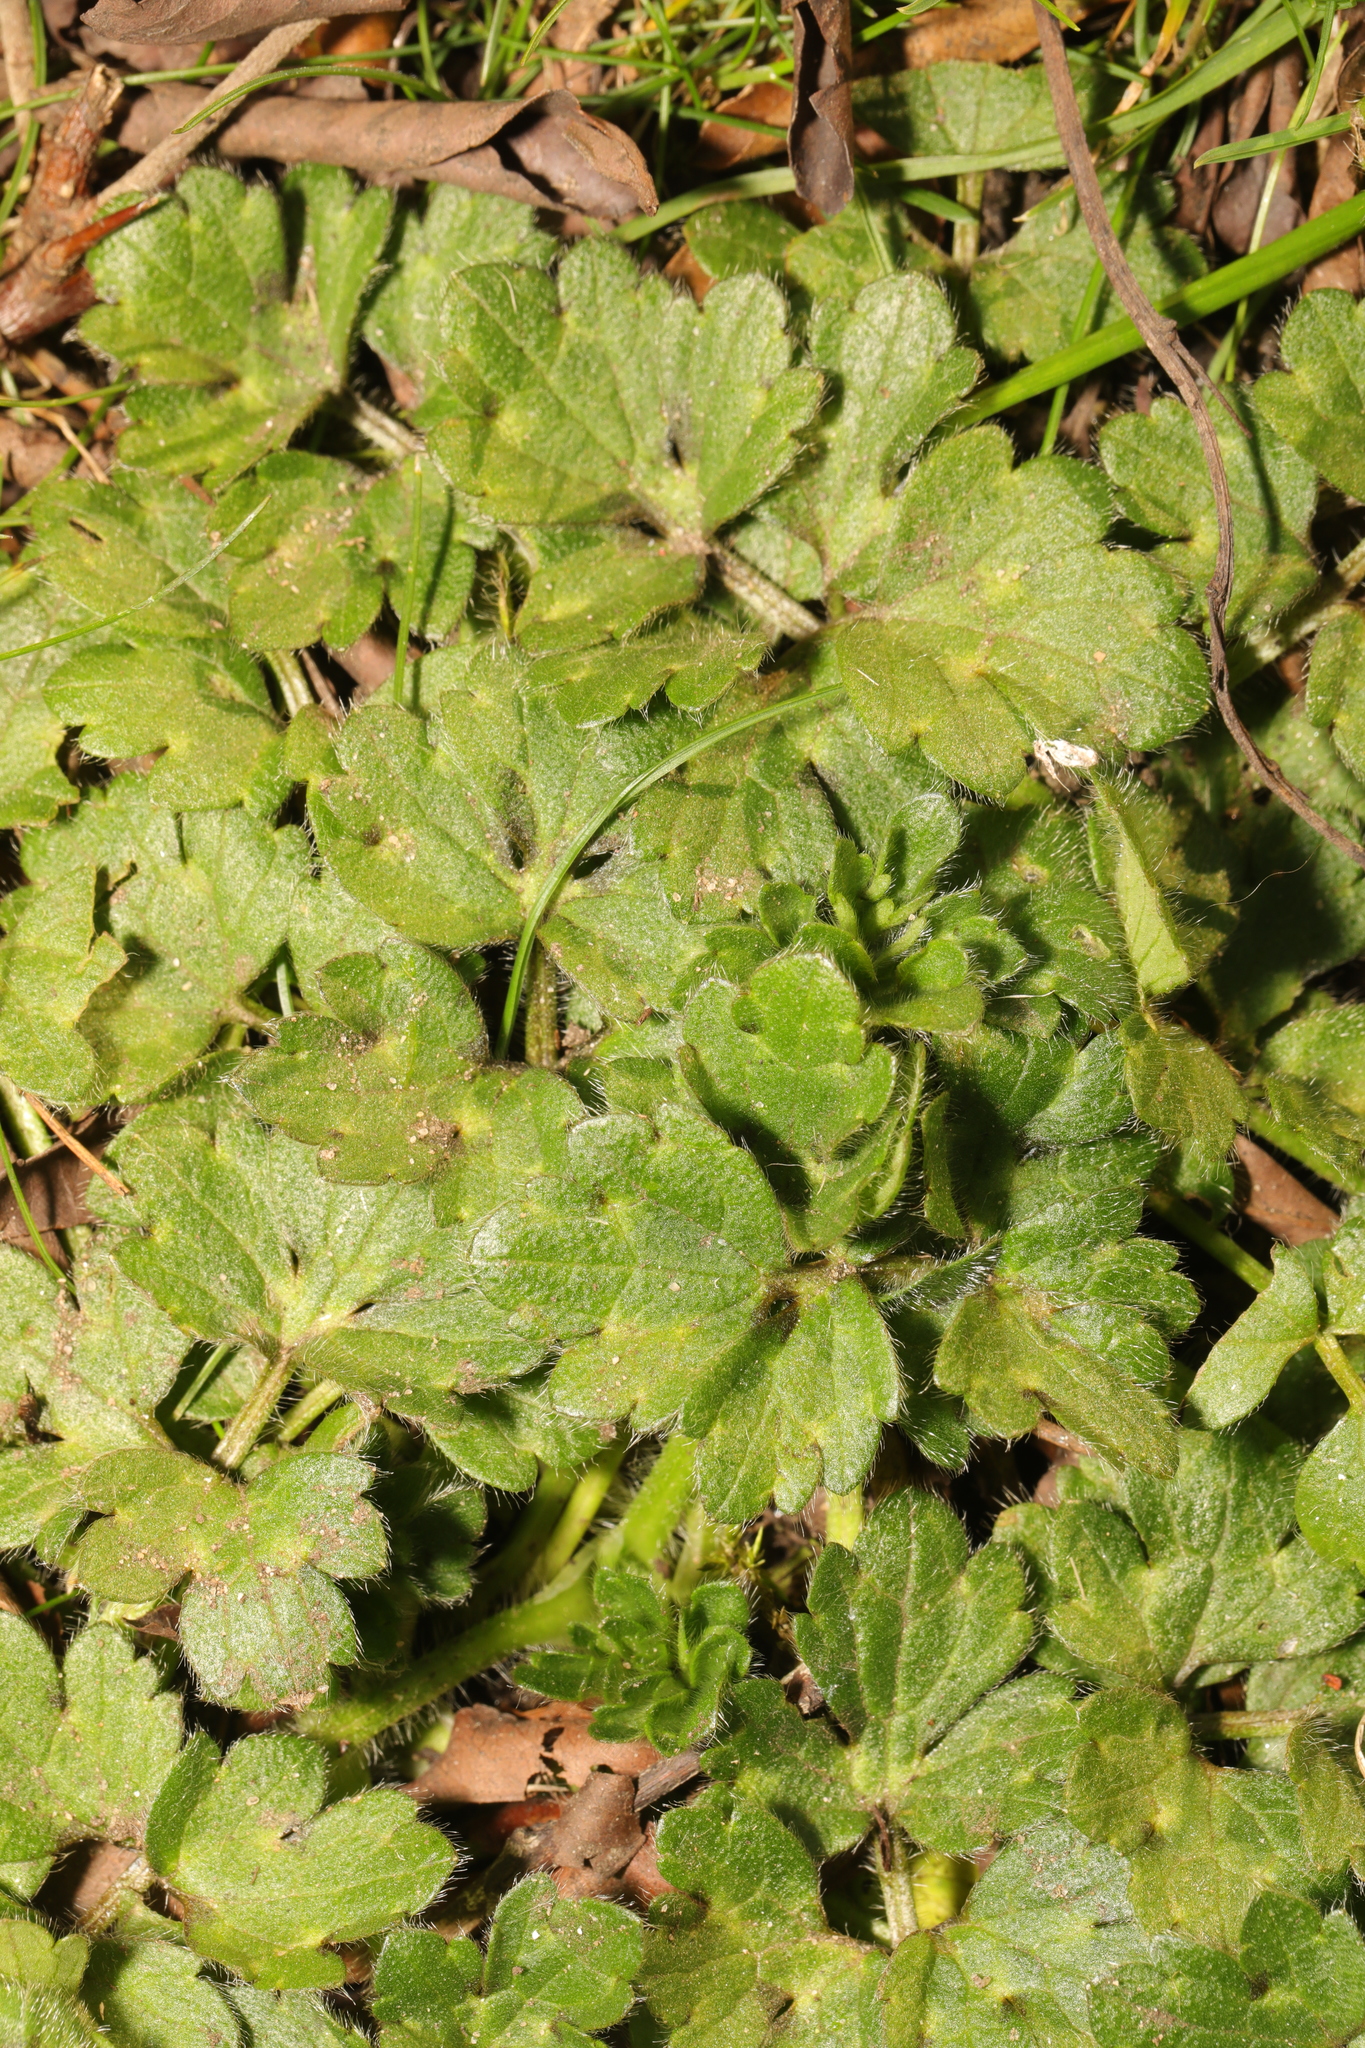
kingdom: Plantae
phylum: Tracheophyta
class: Magnoliopsida
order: Ranunculales
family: Ranunculaceae
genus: Ranunculus
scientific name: Ranunculus repens
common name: Creeping buttercup
